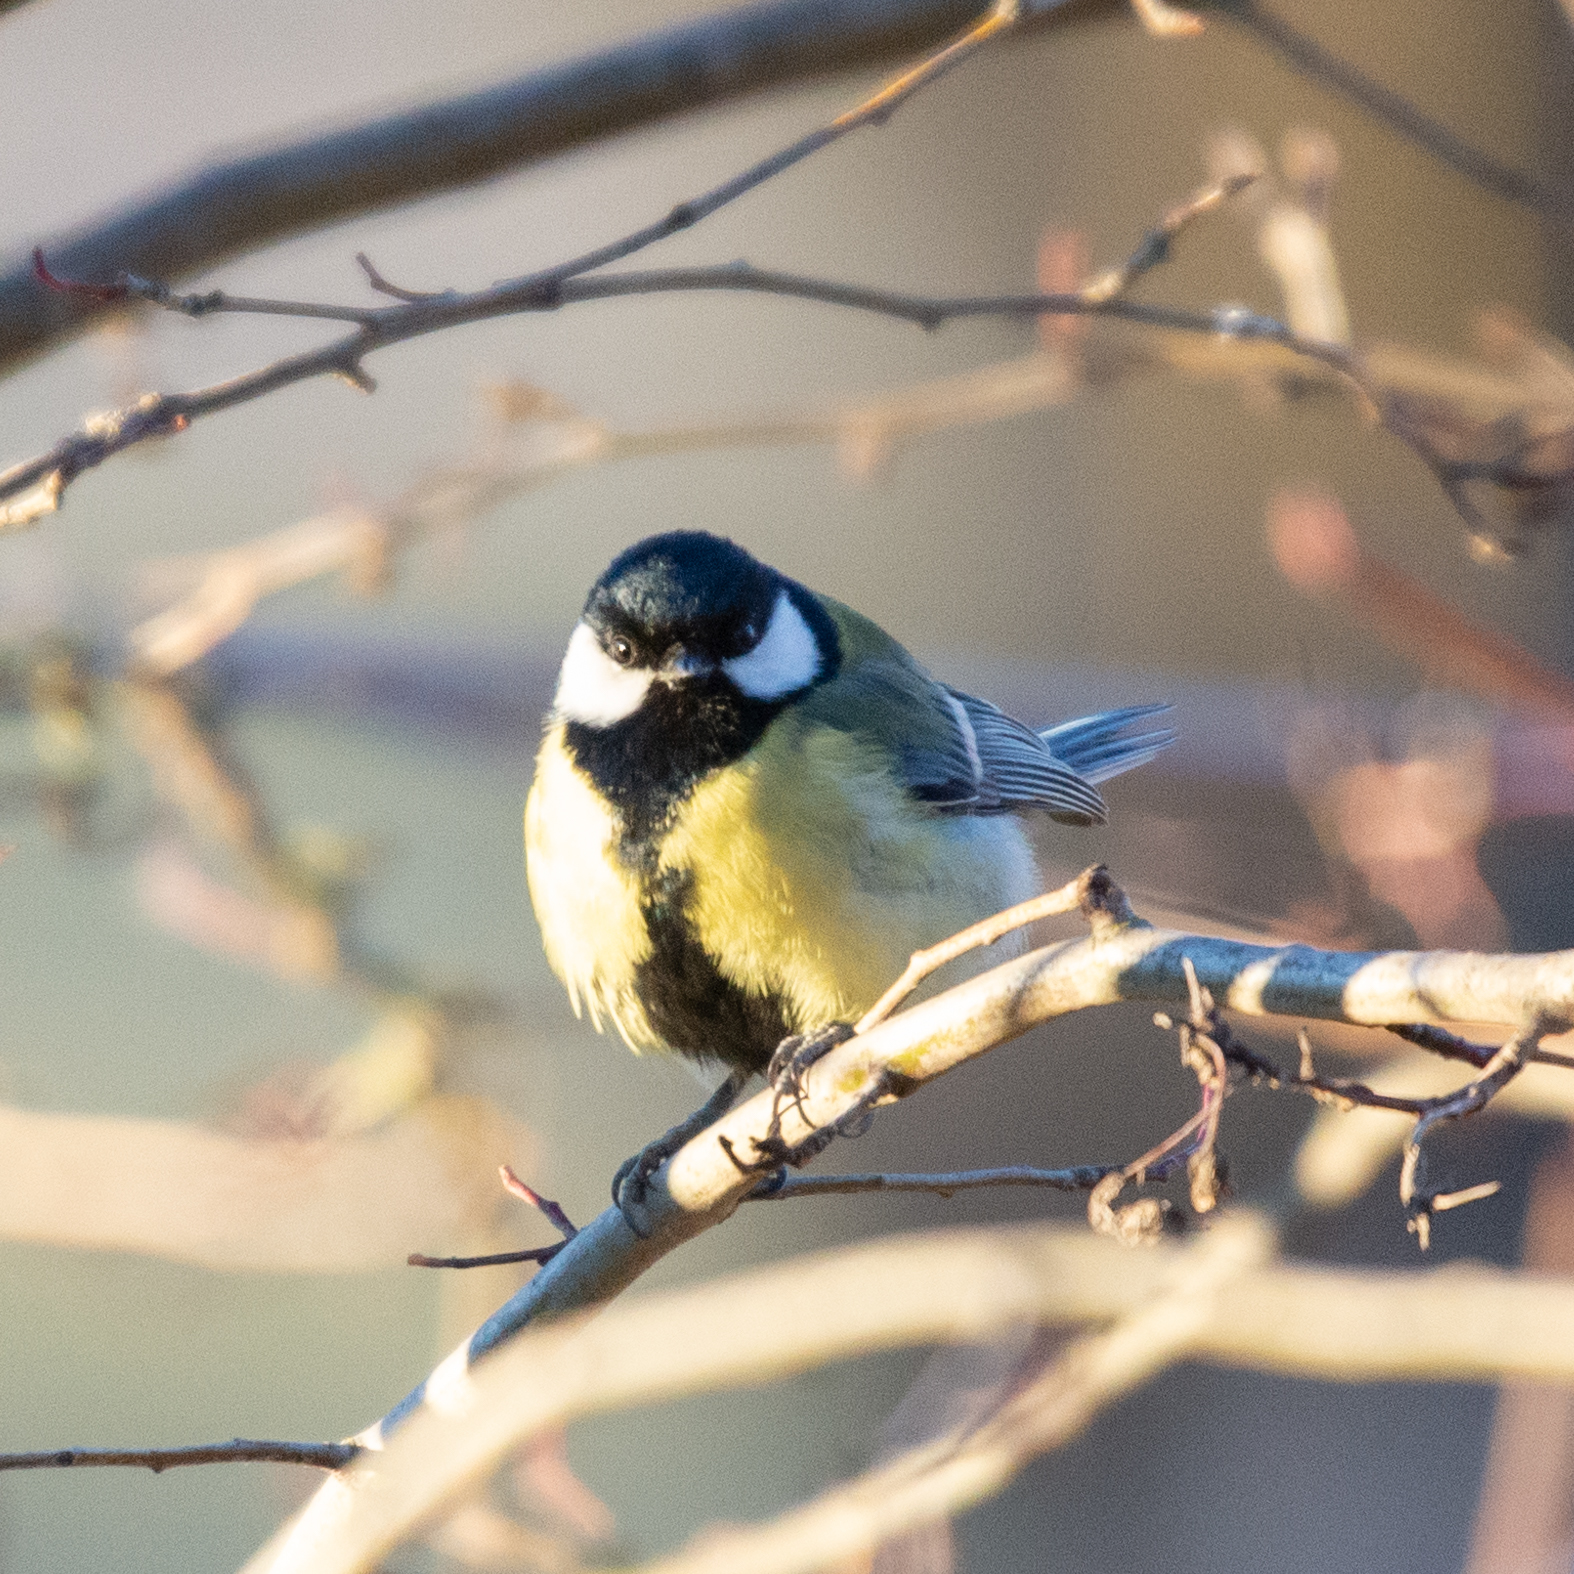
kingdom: Animalia
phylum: Chordata
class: Aves
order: Passeriformes
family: Paridae
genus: Parus
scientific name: Parus major
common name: Great tit
